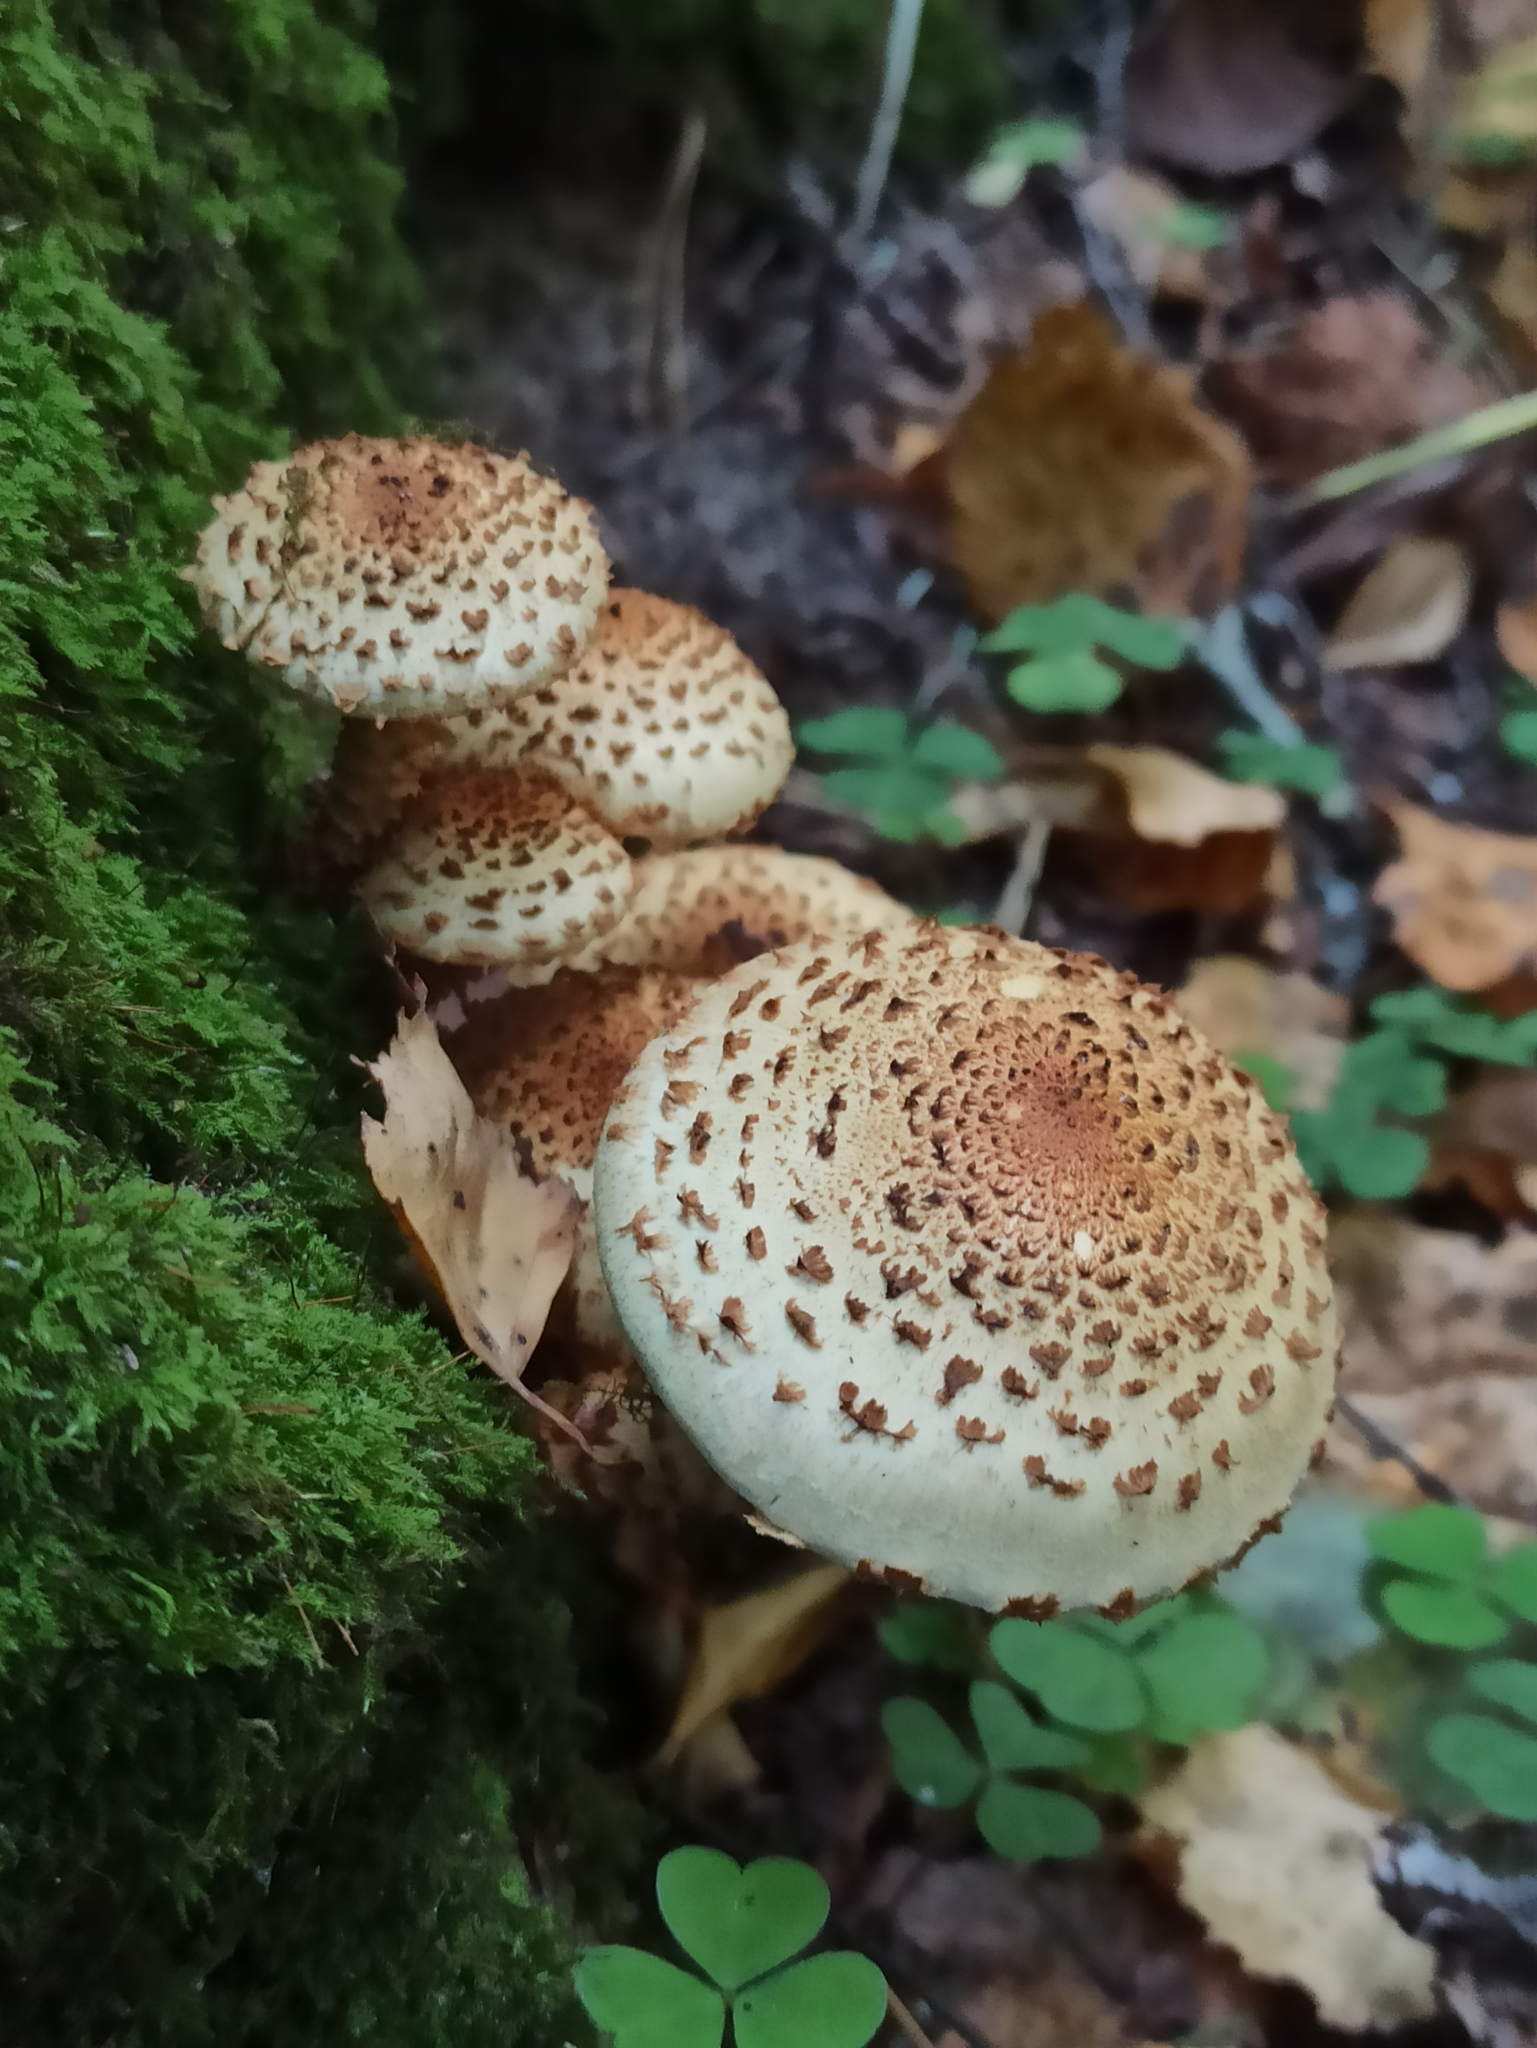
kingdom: Fungi
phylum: Basidiomycota
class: Agaricomycetes
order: Agaricales
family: Strophariaceae
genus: Pholiota
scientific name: Pholiota squarrosa
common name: Shaggy pholiota
